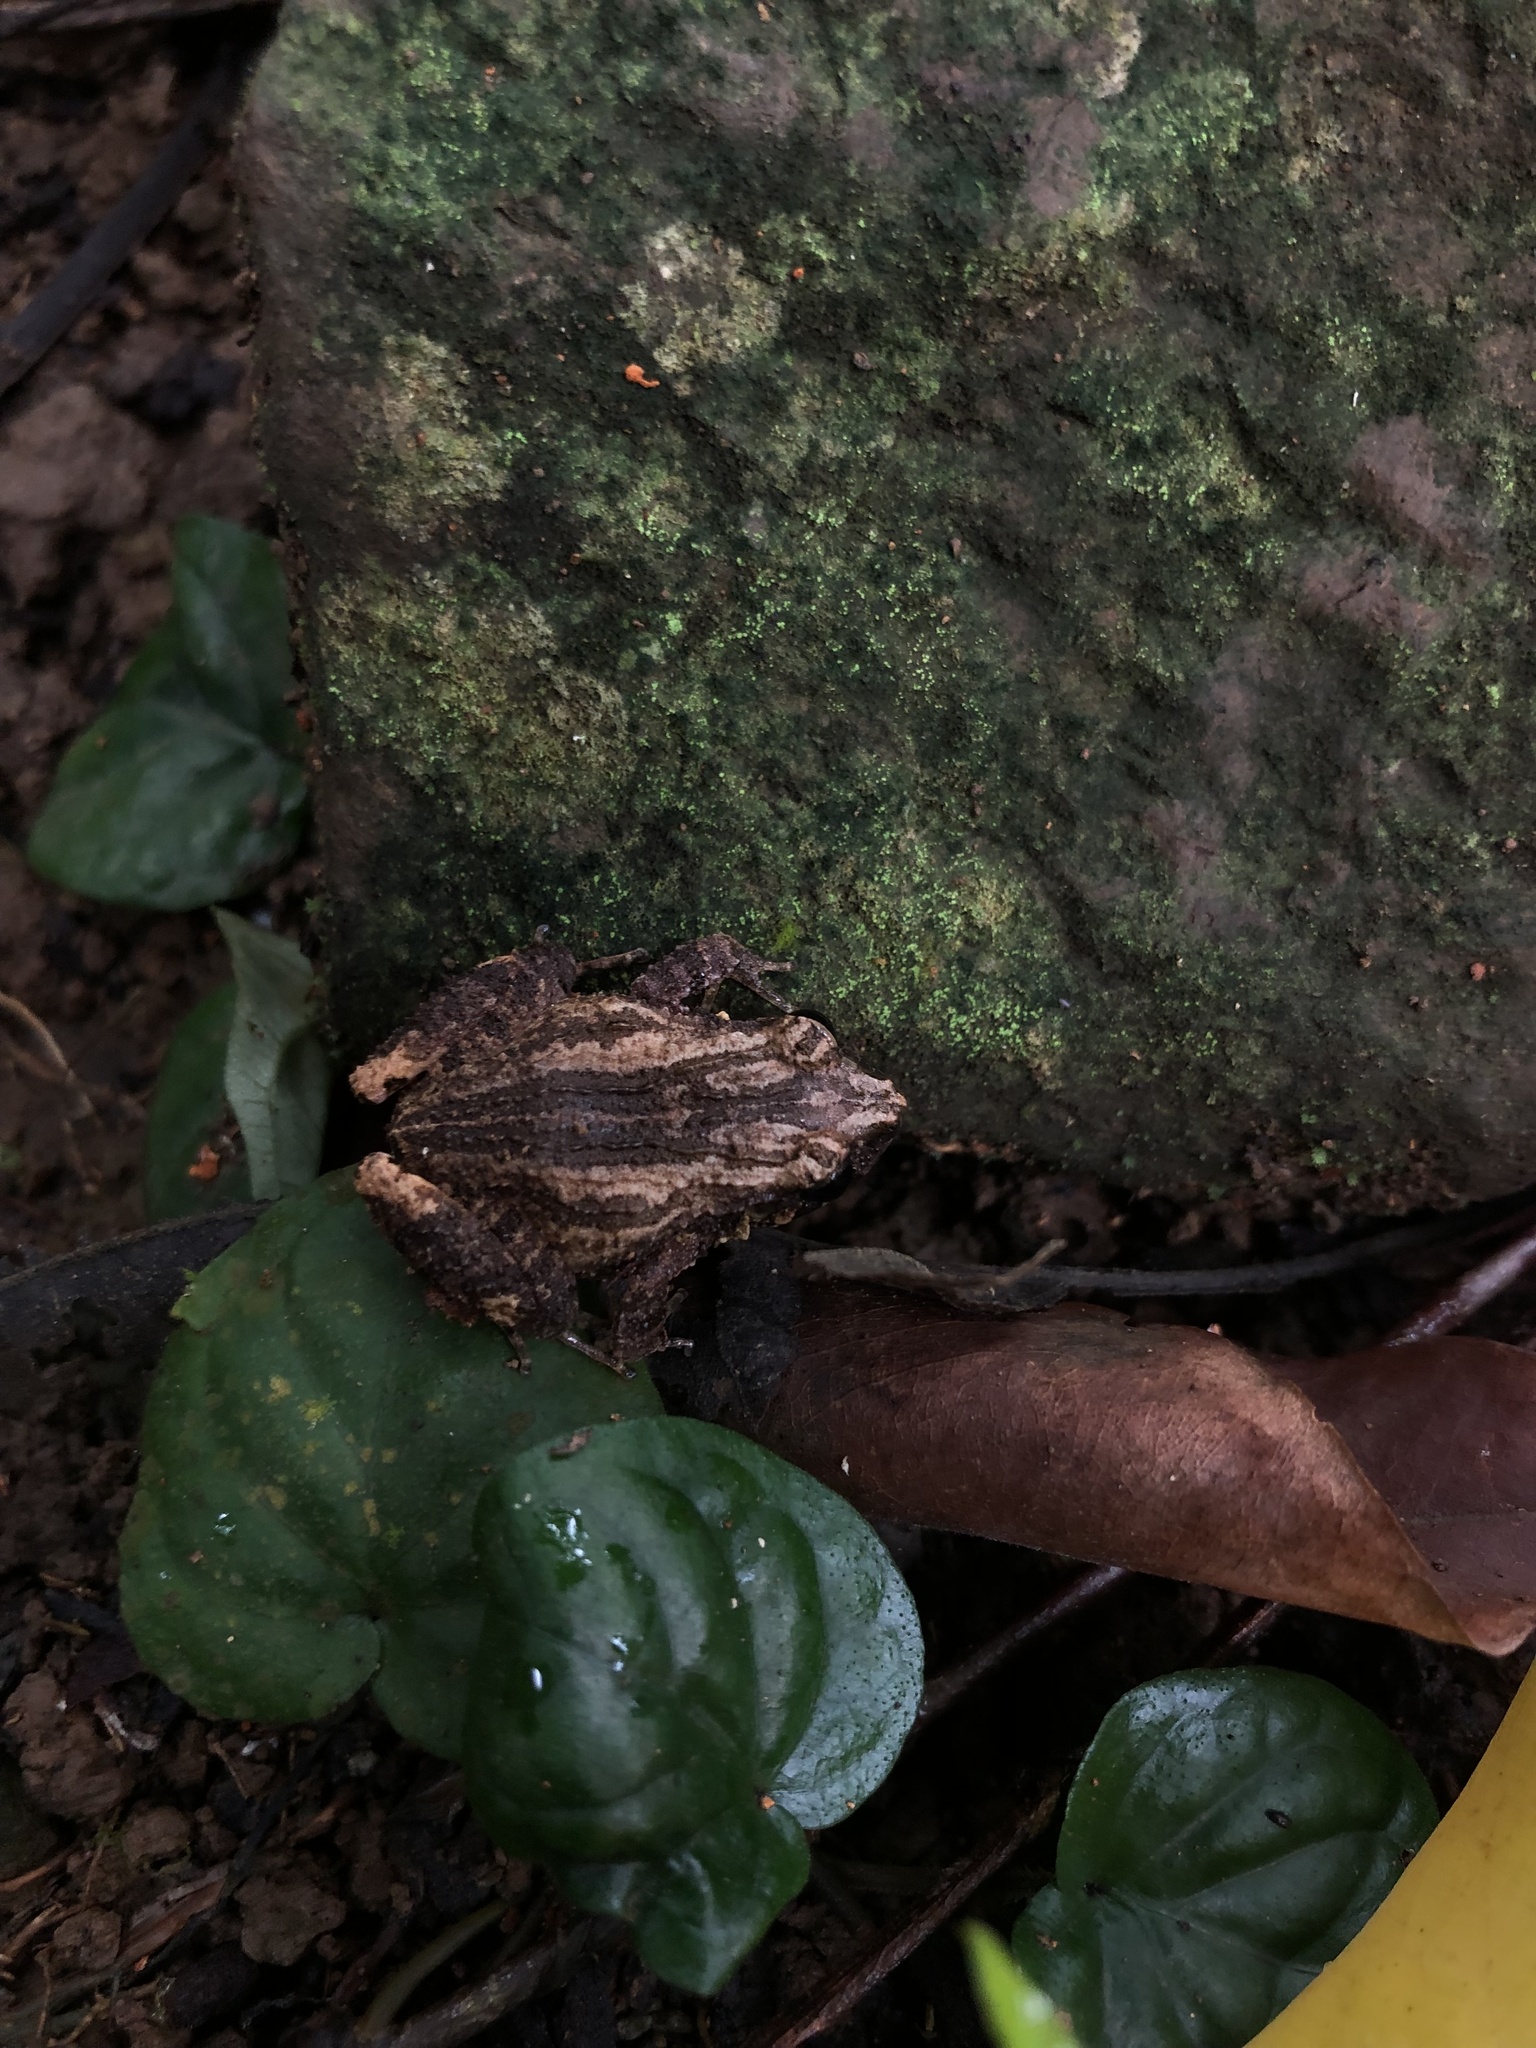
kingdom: Animalia
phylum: Chordata
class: Amphibia
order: Anura
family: Craugastoridae
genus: Craugastor
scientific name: Craugastor polyptychus
